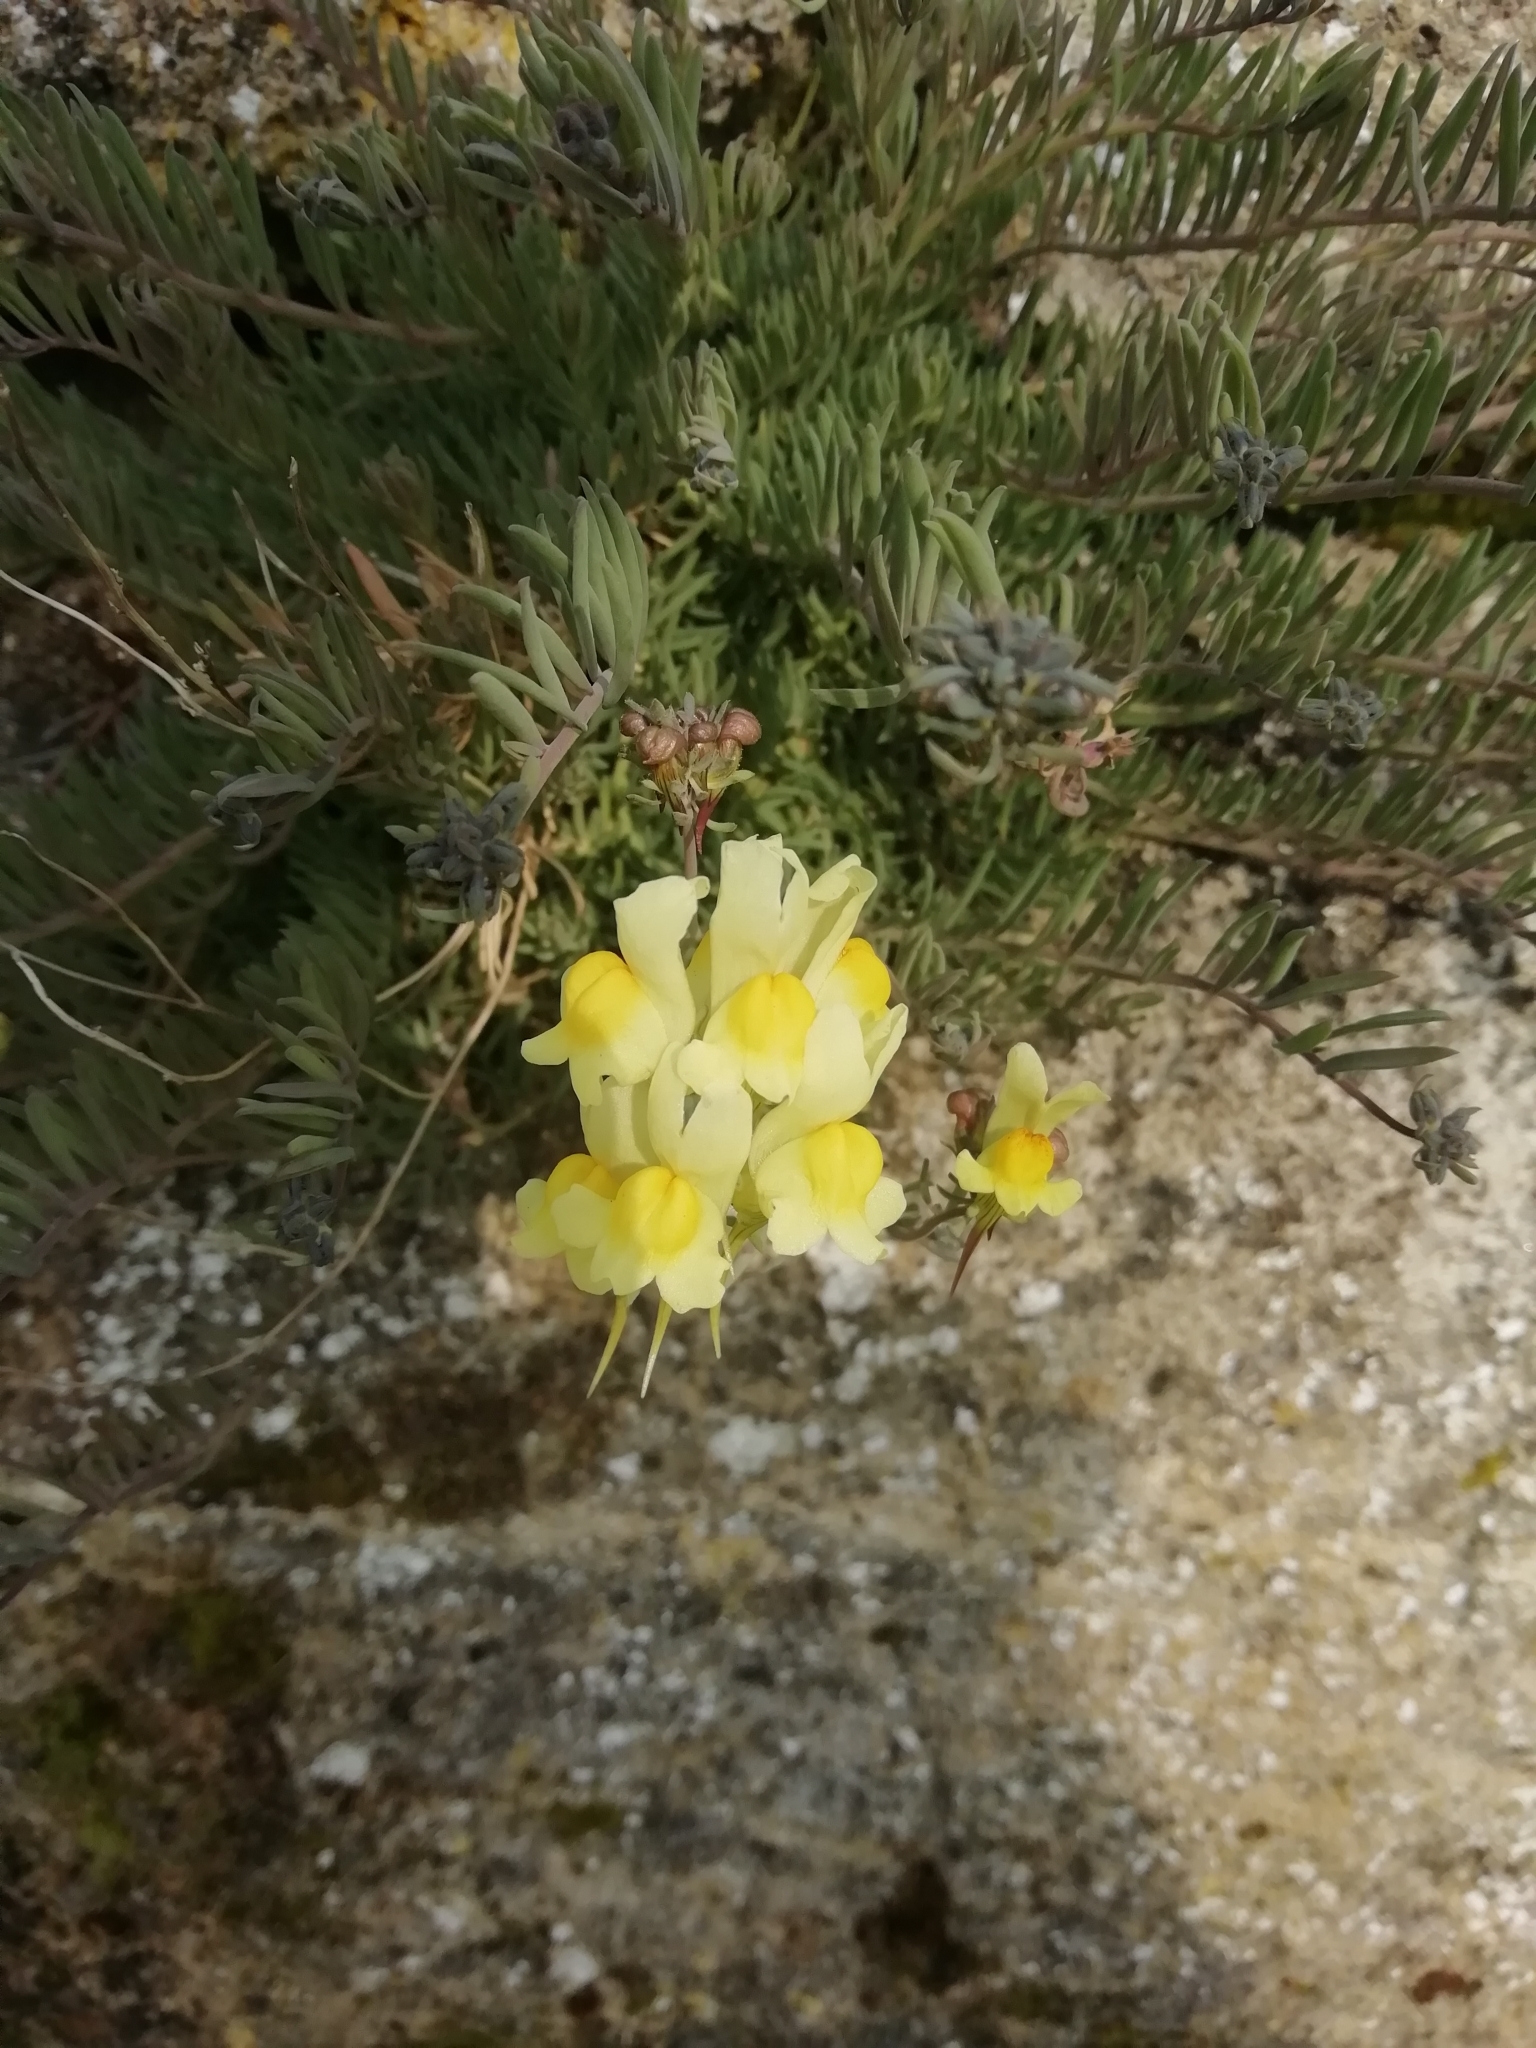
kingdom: Plantae
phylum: Tracheophyta
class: Magnoliopsida
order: Lamiales
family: Plantaginaceae
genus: Linaria
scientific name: Linaria vulgaris
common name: Butter and eggs
